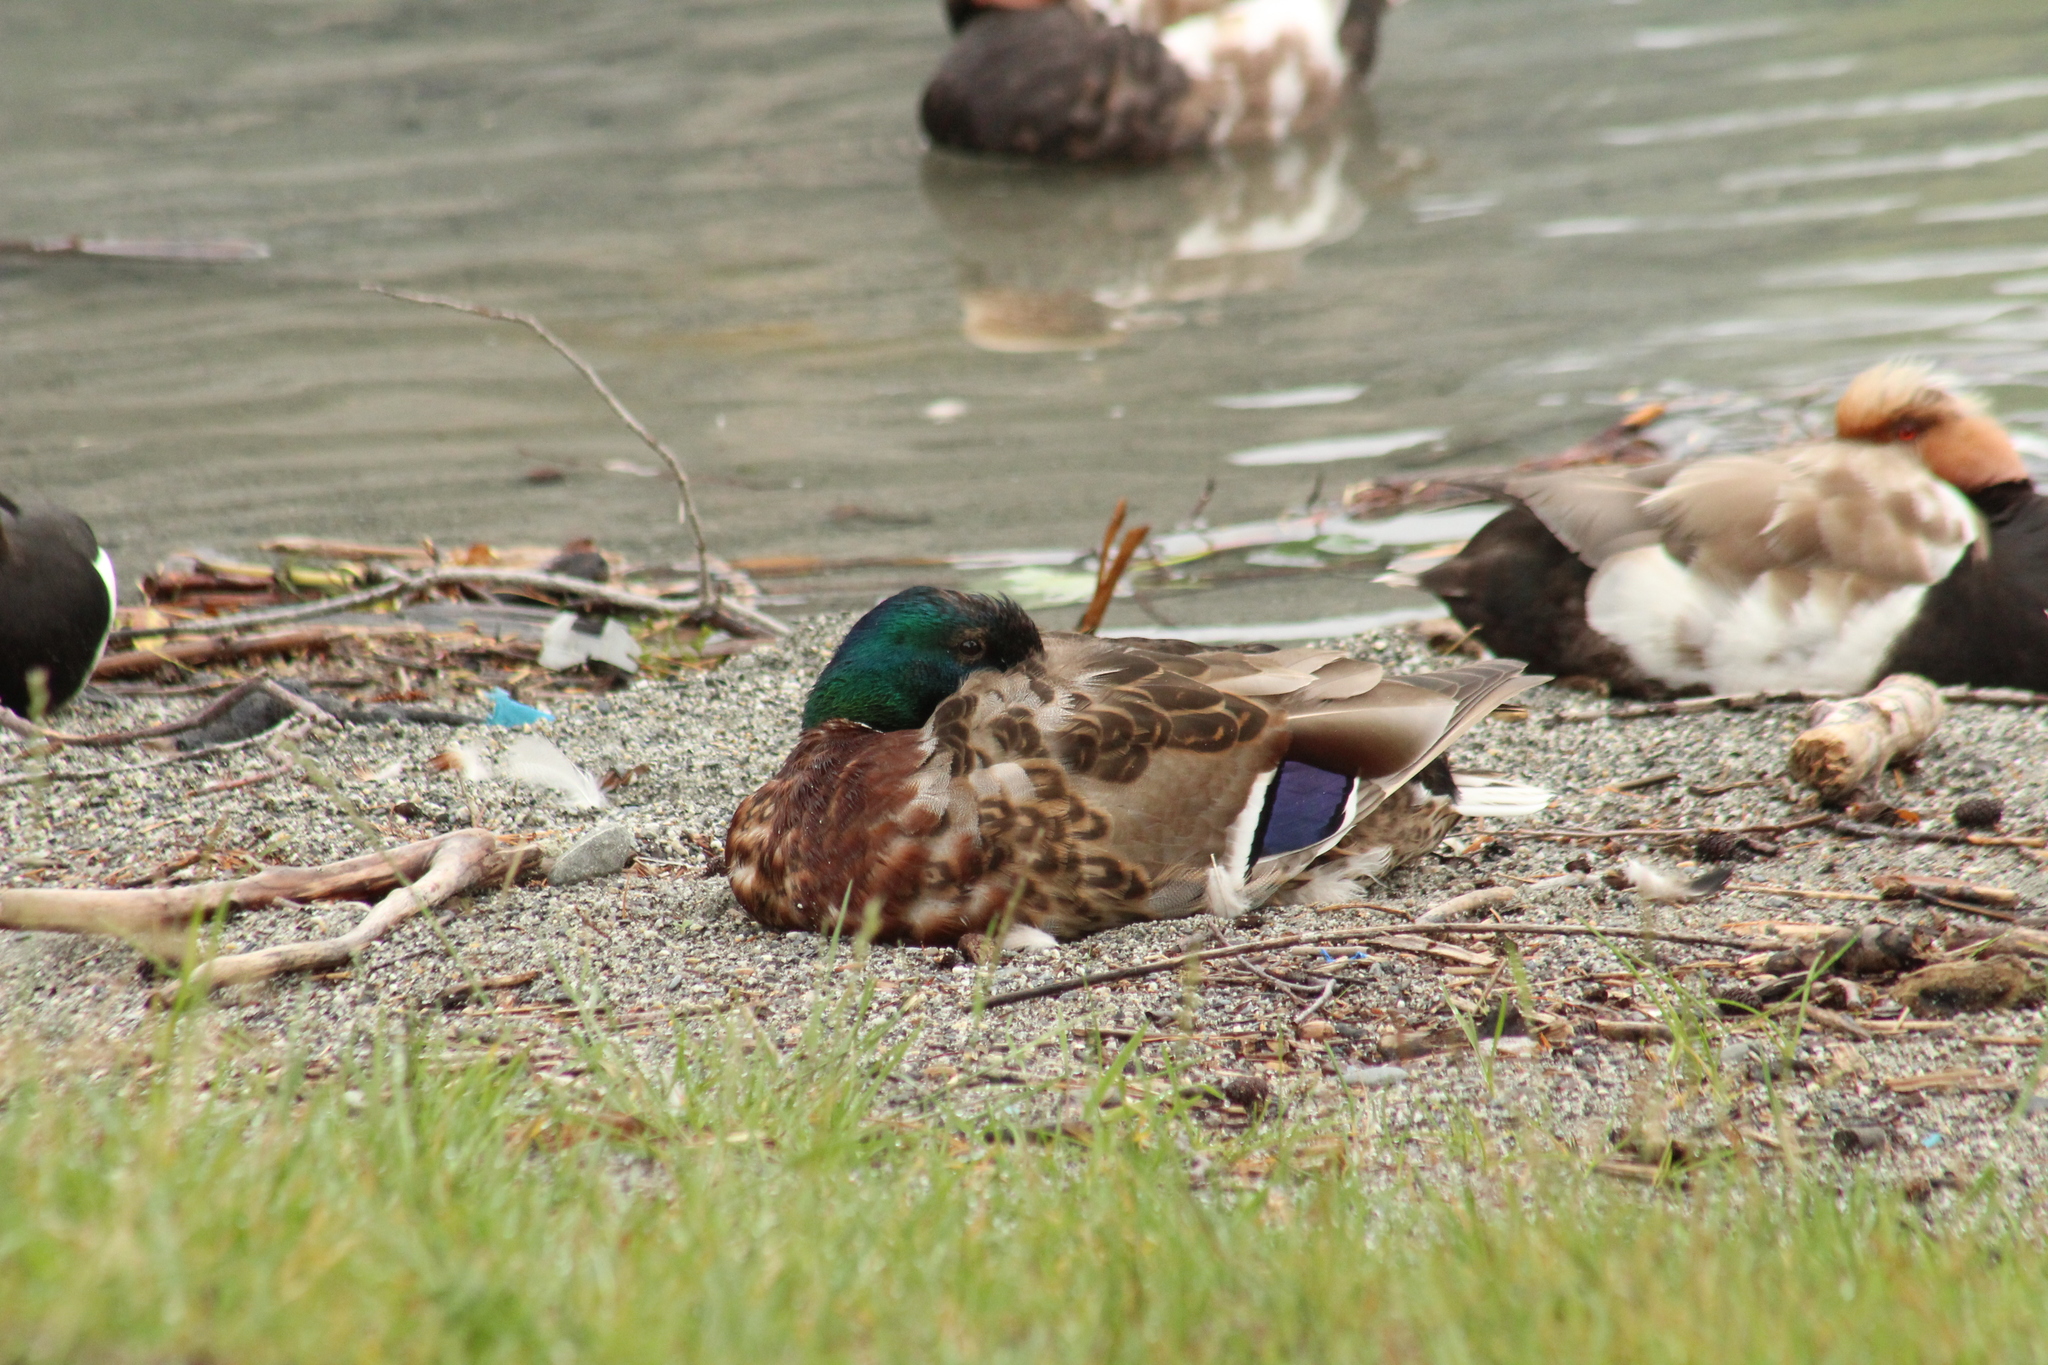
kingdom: Animalia
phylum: Chordata
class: Aves
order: Anseriformes
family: Anatidae
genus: Anas
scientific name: Anas platyrhynchos
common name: Mallard
